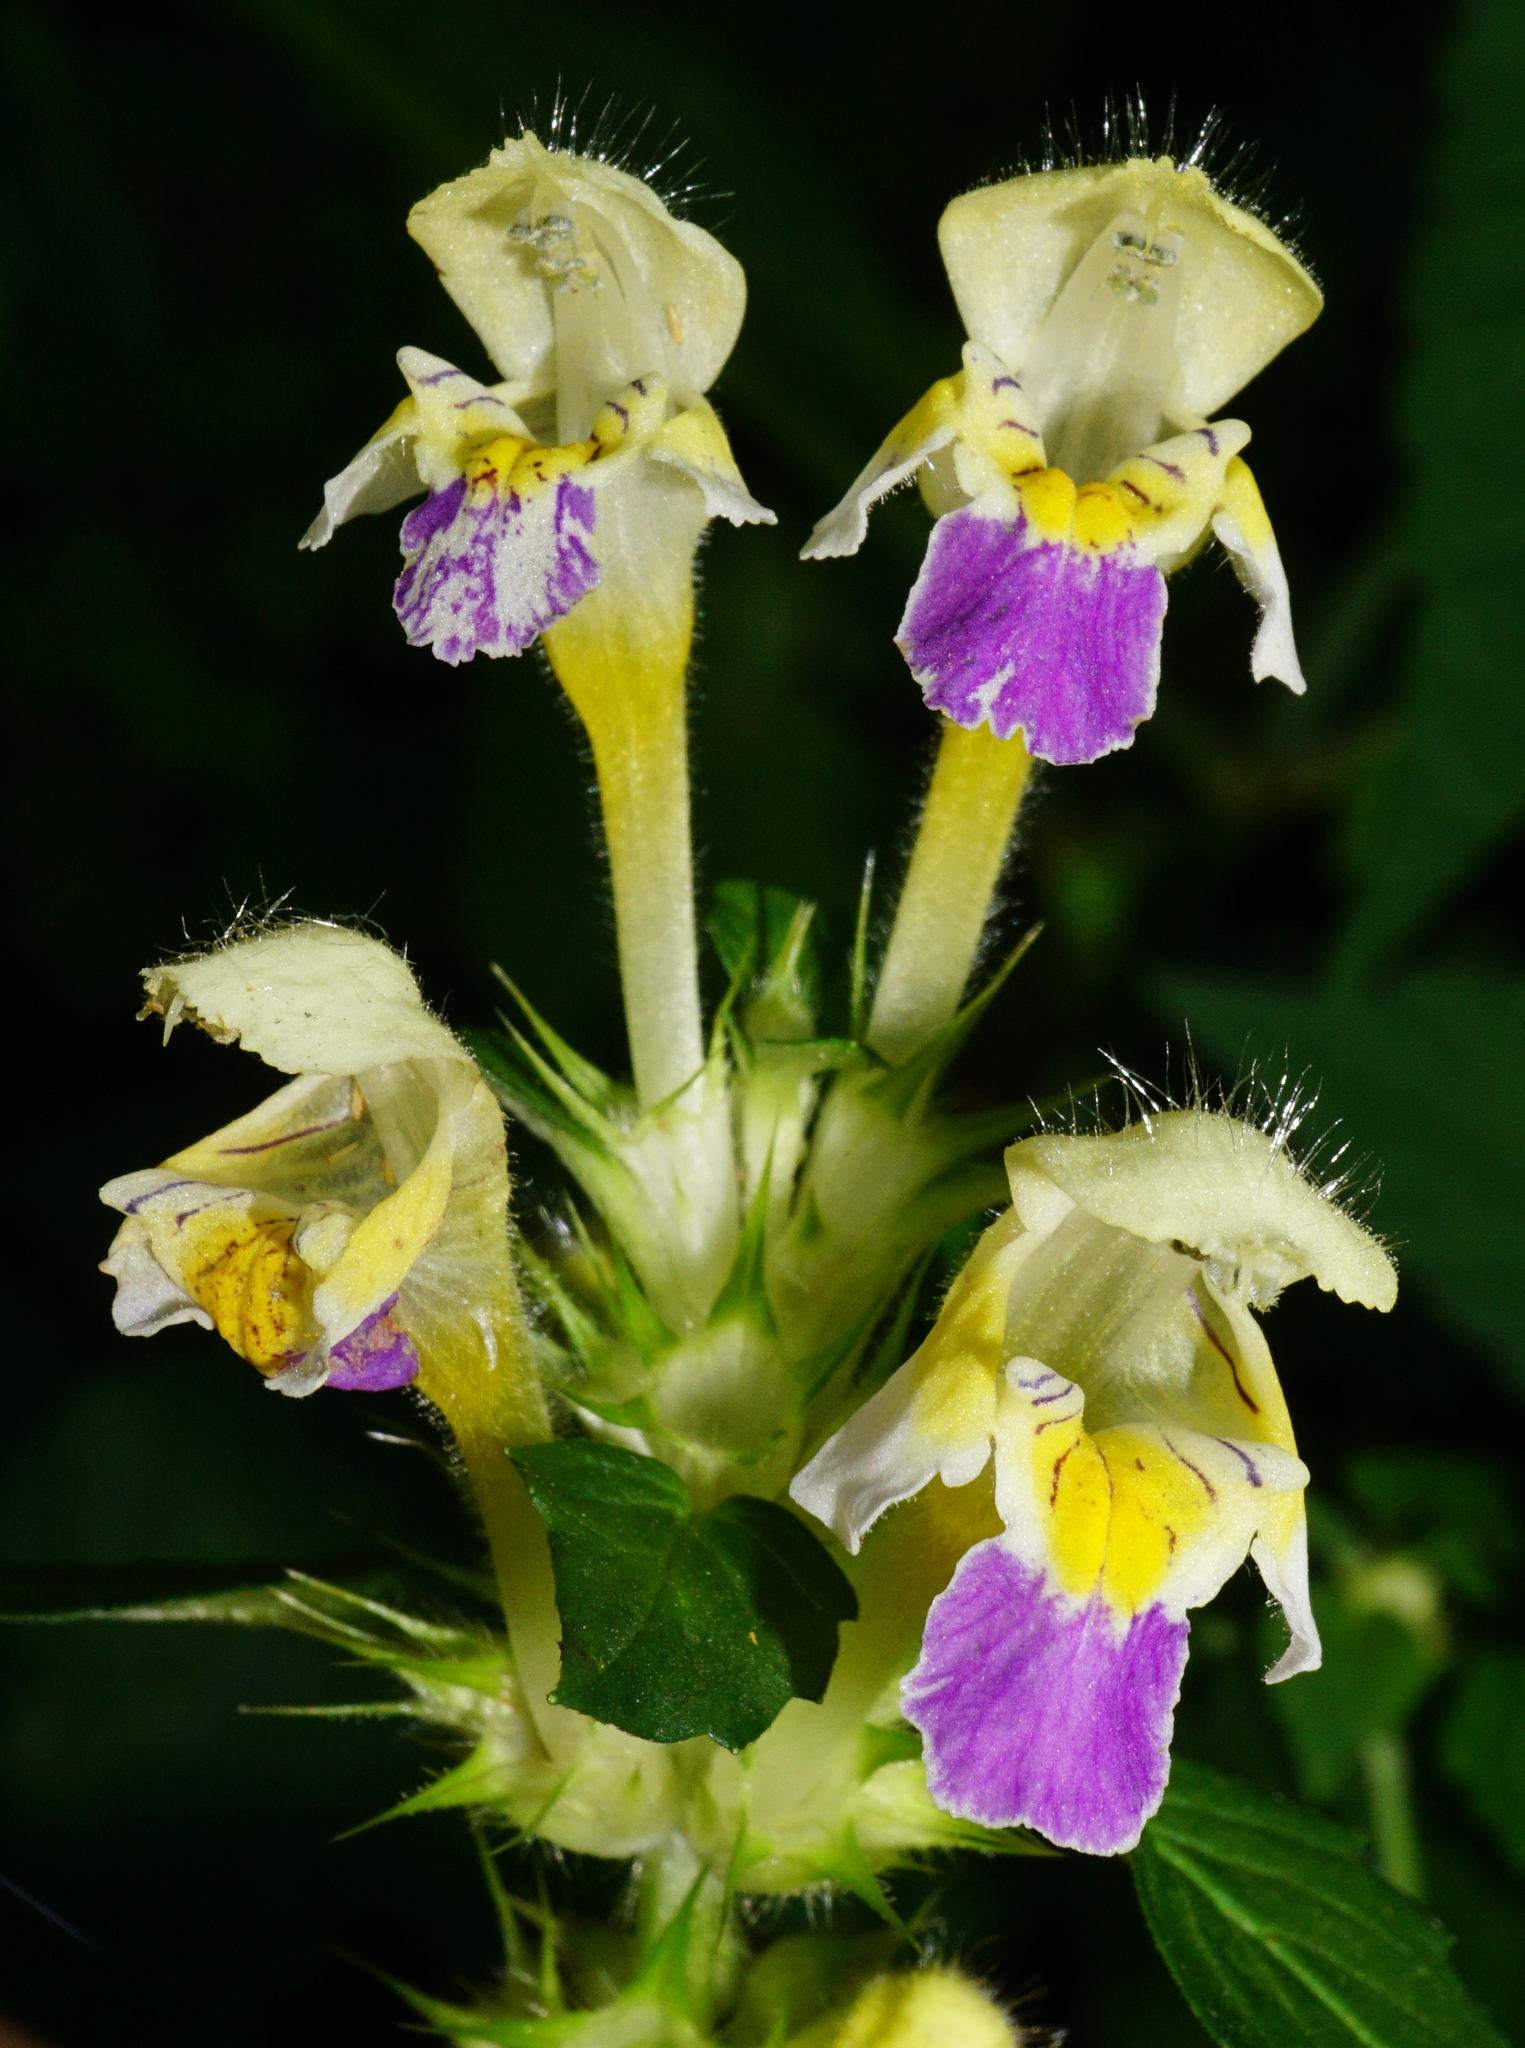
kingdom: Plantae
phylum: Tracheophyta
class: Magnoliopsida
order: Lamiales
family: Lamiaceae
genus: Galeopsis
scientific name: Galeopsis speciosa
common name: Large-flowered hemp-nettle
